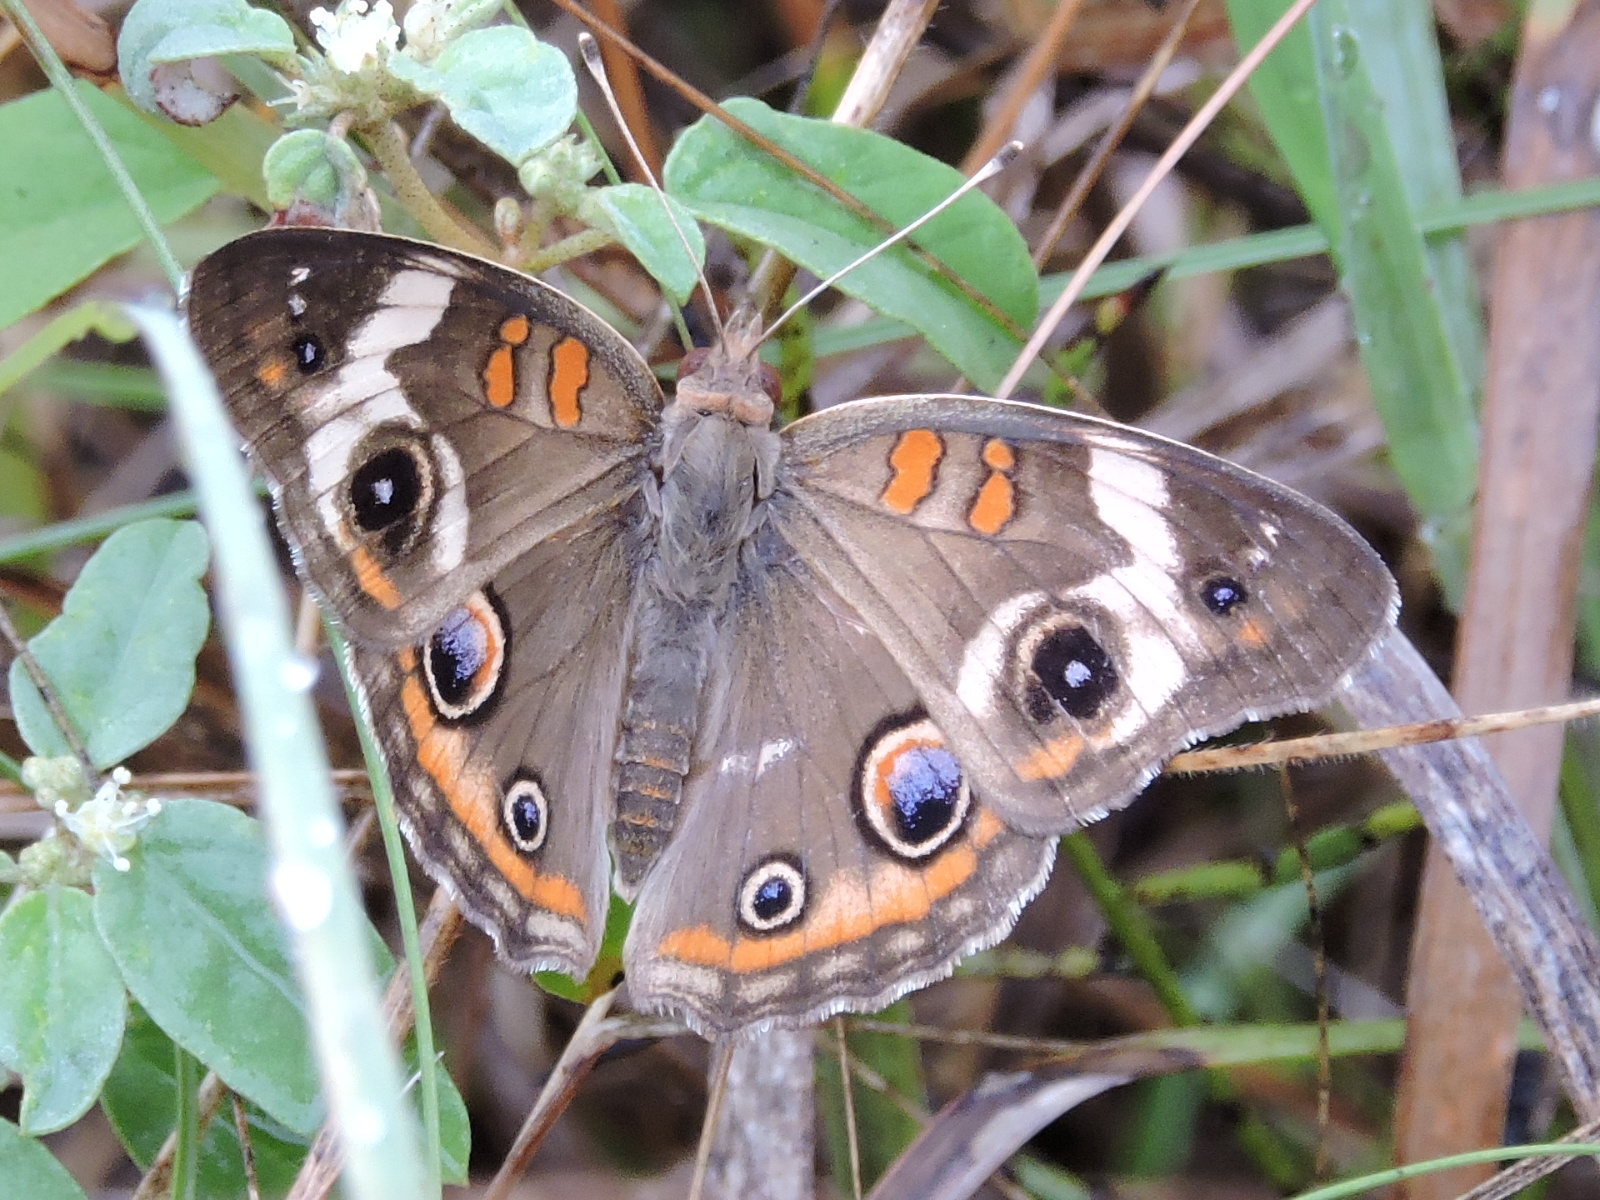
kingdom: Animalia
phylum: Arthropoda
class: Insecta
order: Lepidoptera
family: Nymphalidae
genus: Junonia
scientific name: Junonia coenia
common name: Common buckeye
